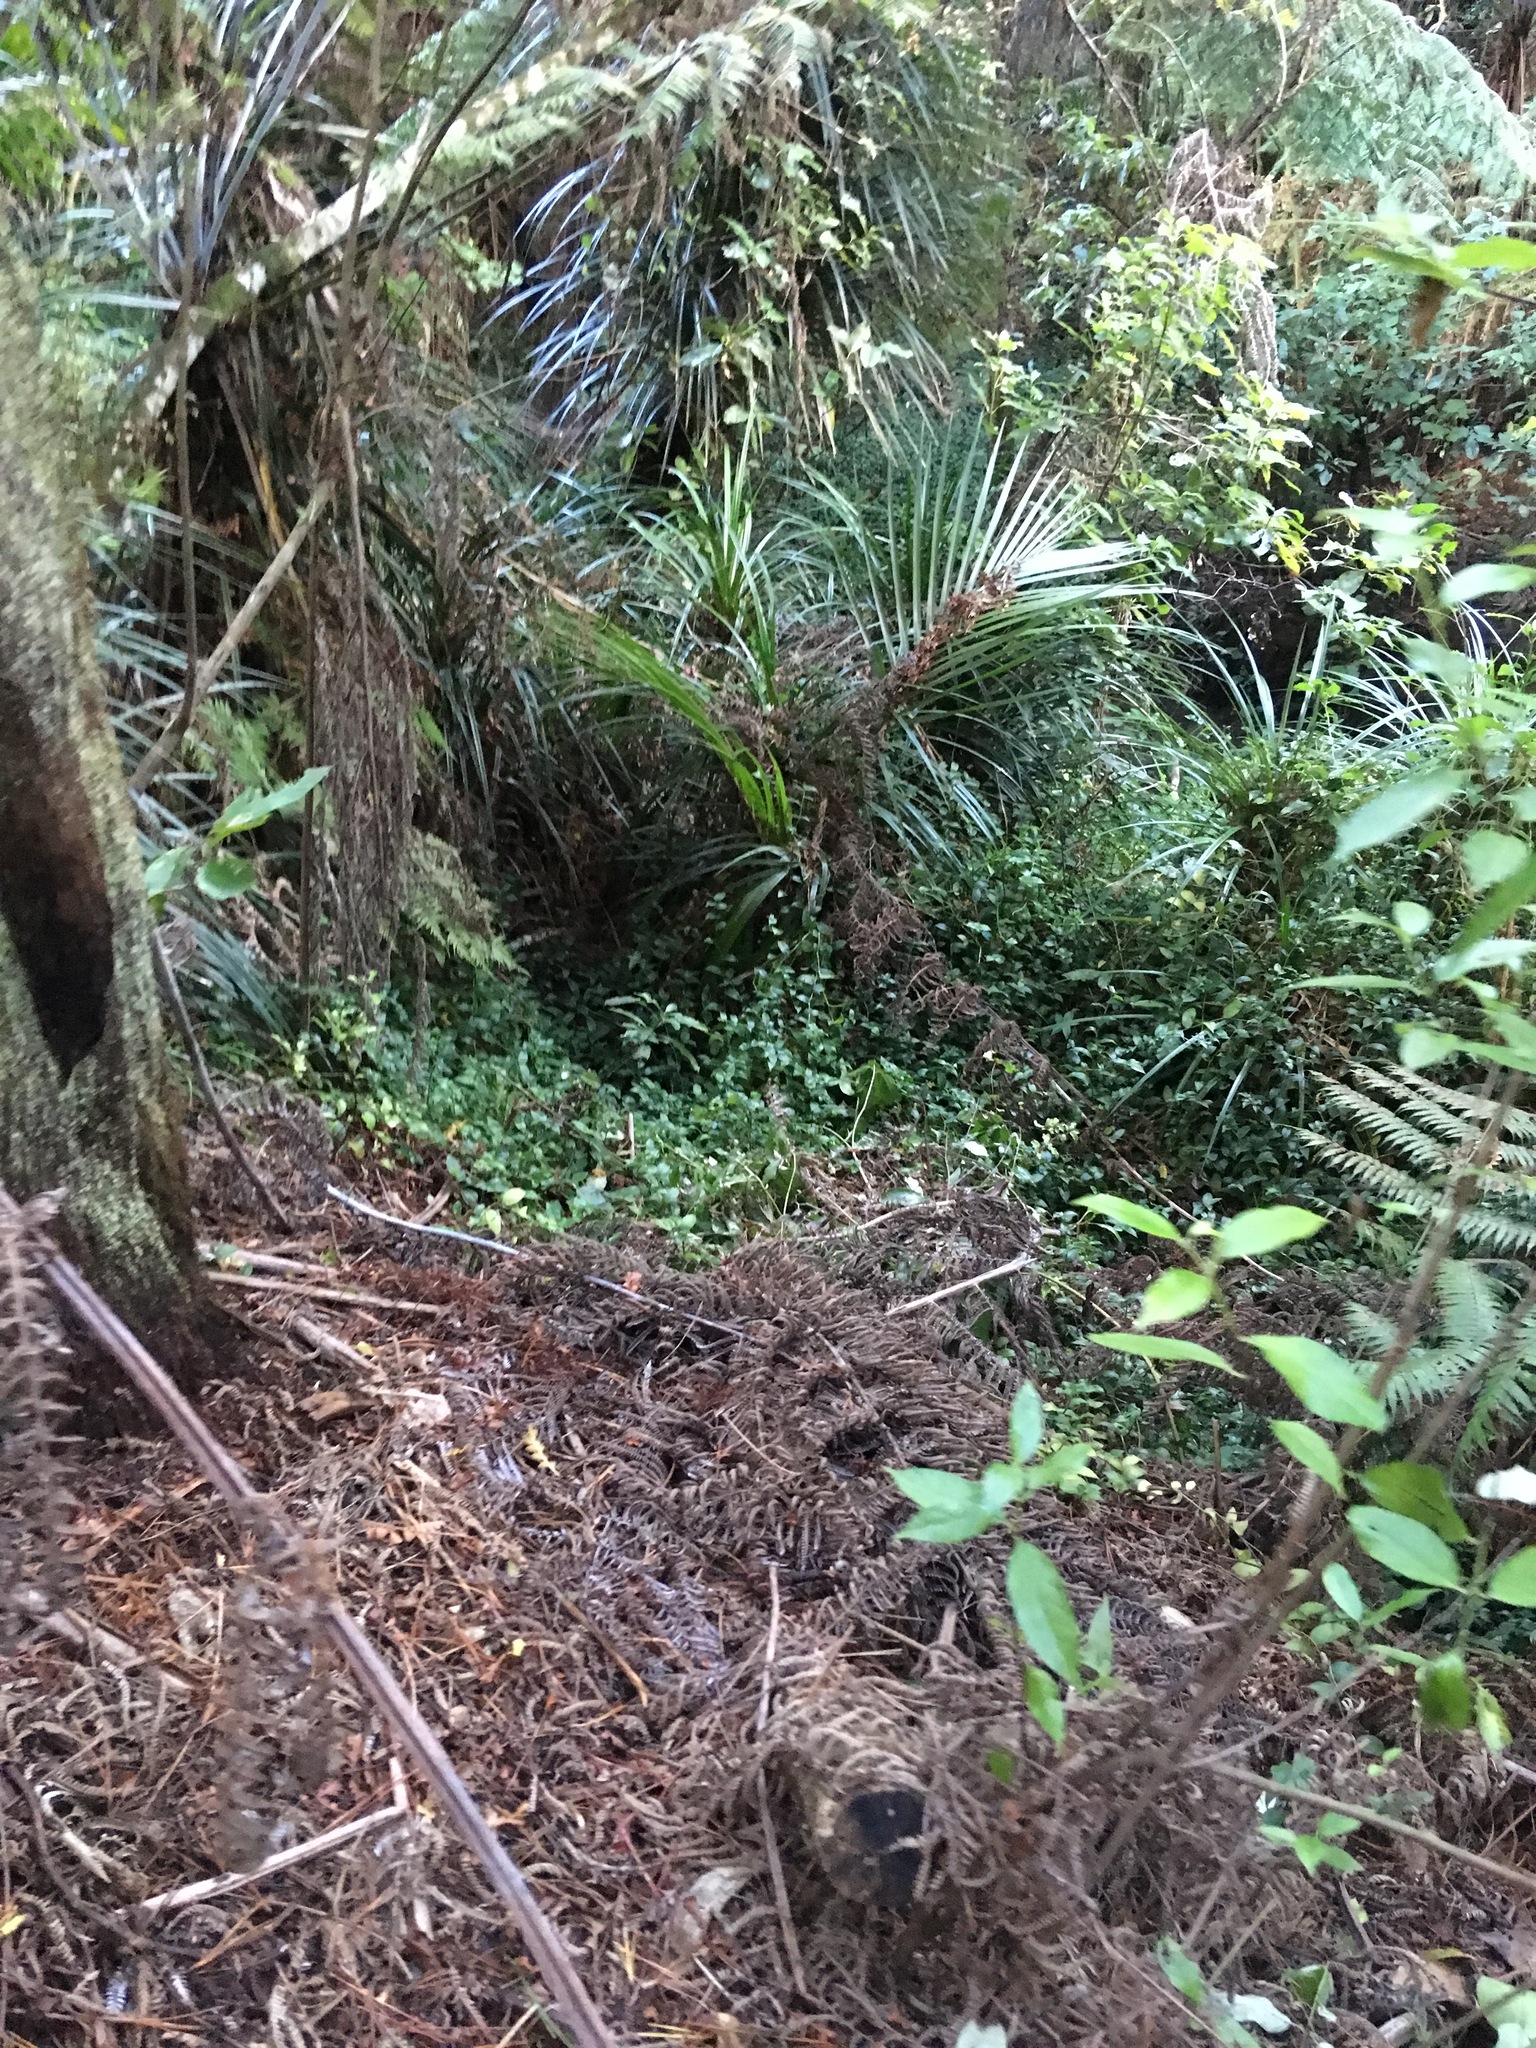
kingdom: Plantae
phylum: Tracheophyta
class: Liliopsida
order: Commelinales
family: Commelinaceae
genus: Tradescantia
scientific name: Tradescantia fluminensis
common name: Wandering-jew
